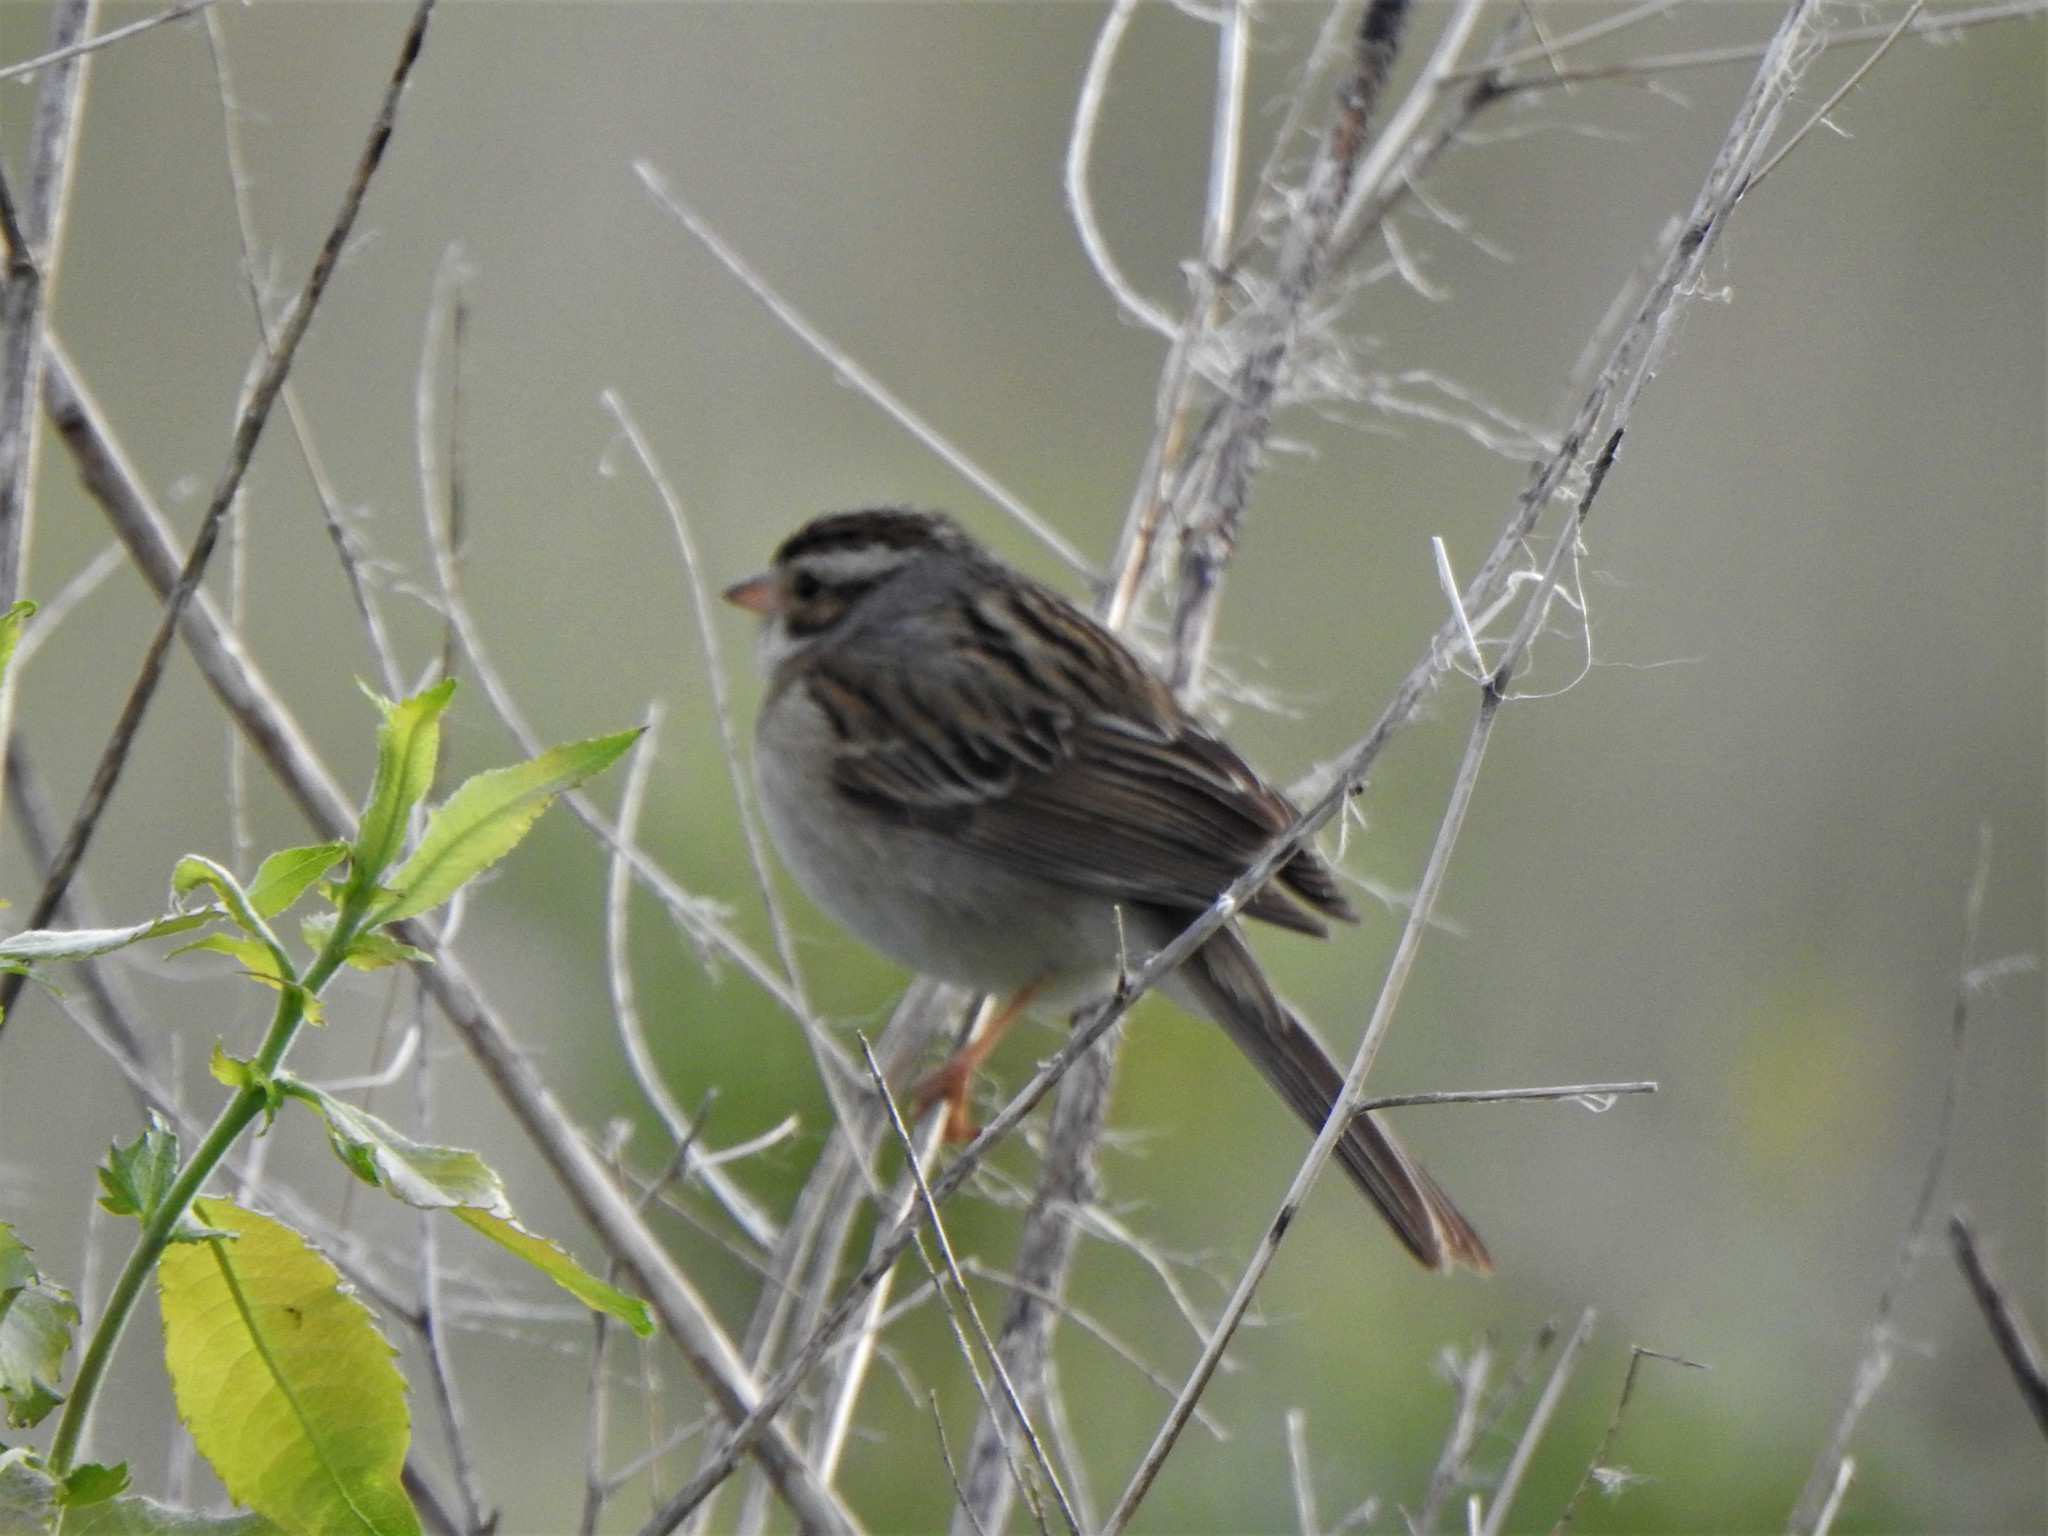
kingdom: Animalia
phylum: Chordata
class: Aves
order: Passeriformes
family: Passerellidae
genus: Spizella
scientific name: Spizella pallida
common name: Clay-colored sparrow
